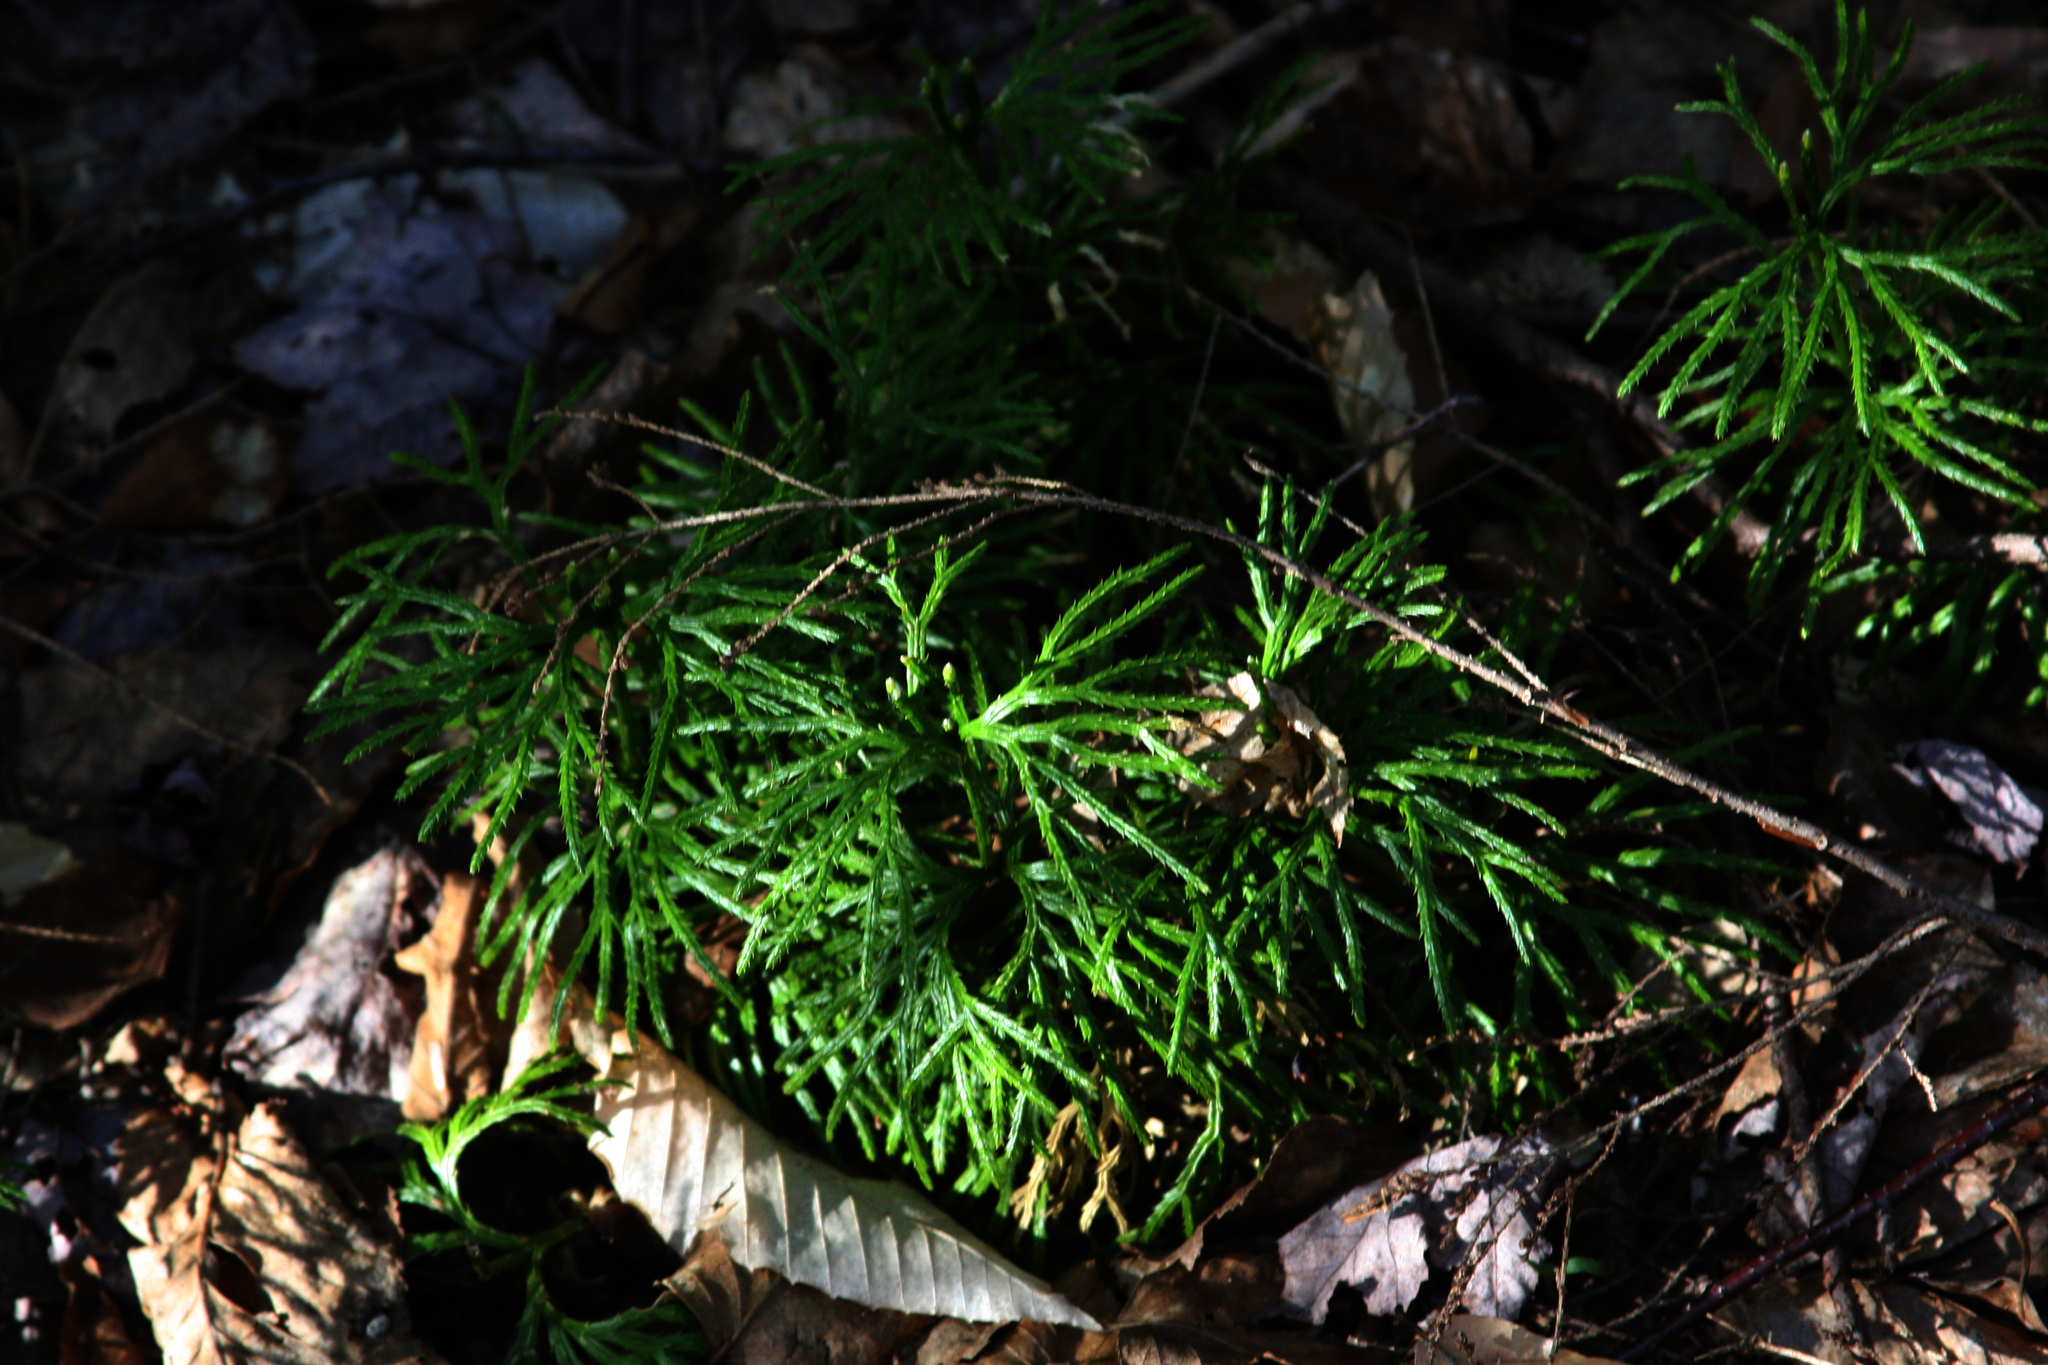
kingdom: Plantae
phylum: Tracheophyta
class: Lycopodiopsida
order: Lycopodiales
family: Lycopodiaceae
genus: Diphasiastrum
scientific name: Diphasiastrum digitatum
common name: Southern running-pine
